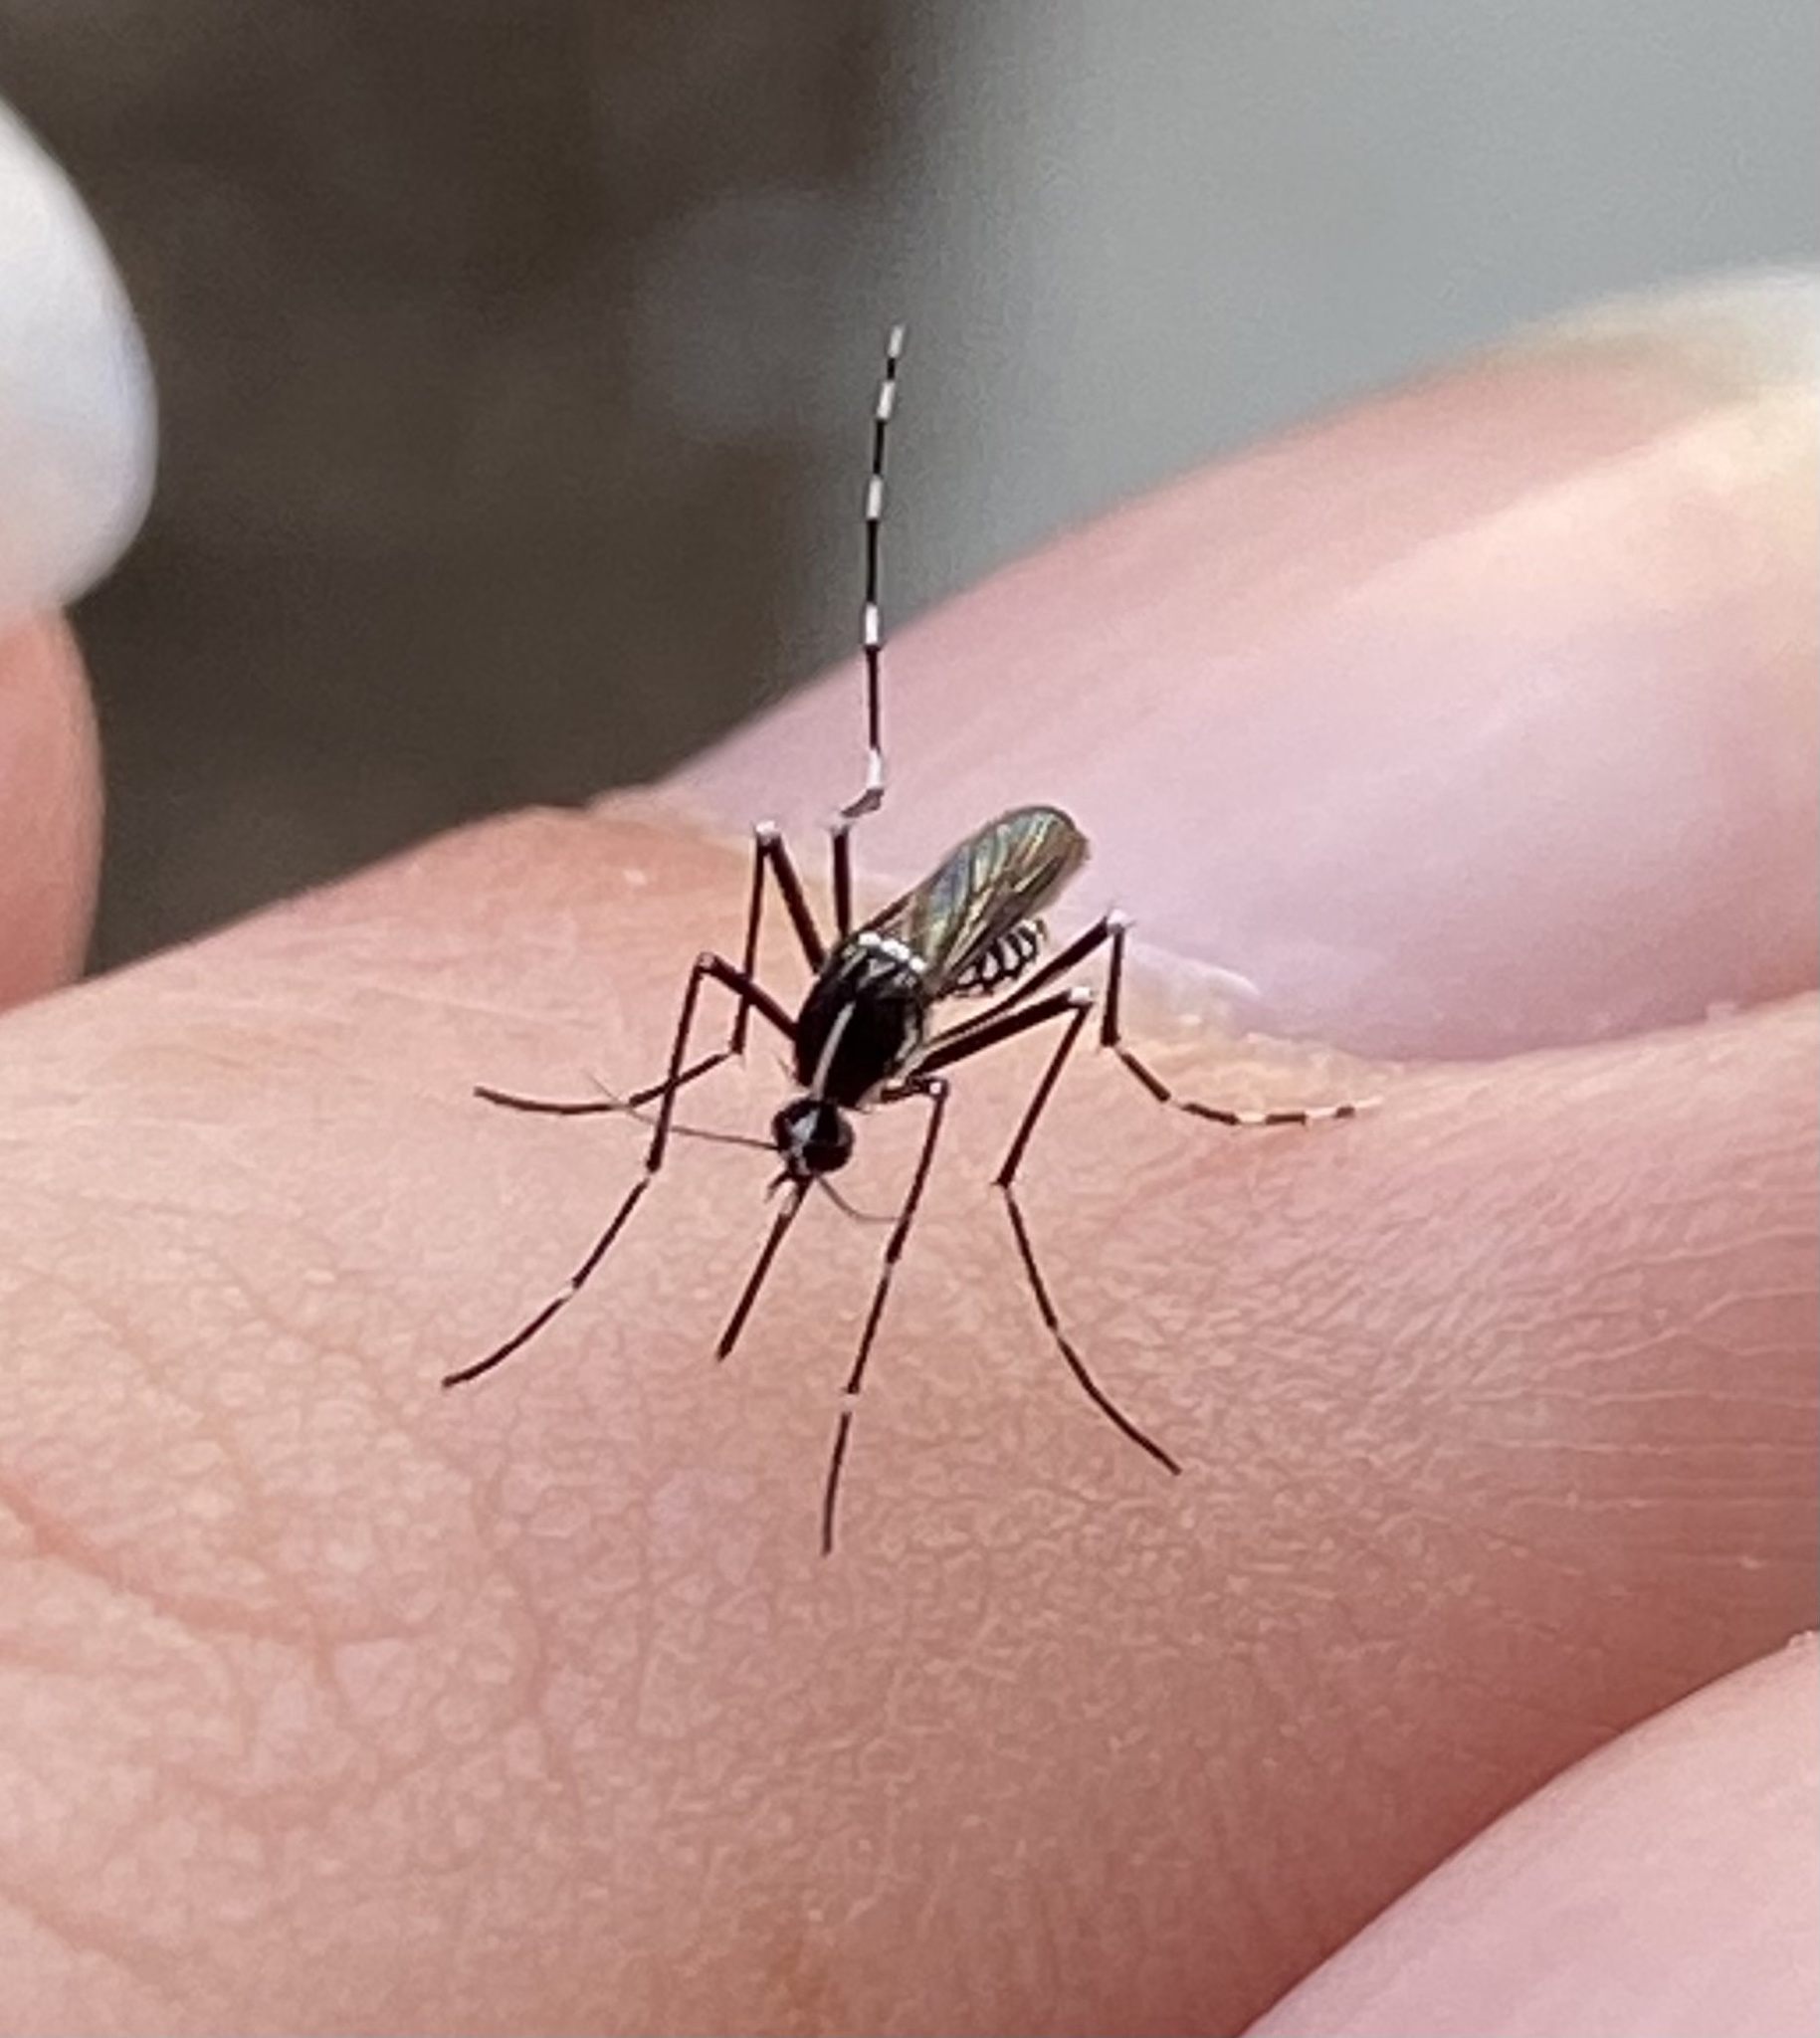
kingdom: Animalia
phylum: Arthropoda
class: Insecta
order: Diptera
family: Culicidae
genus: Aedes
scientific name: Aedes albopictus
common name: Tiger mosquito
